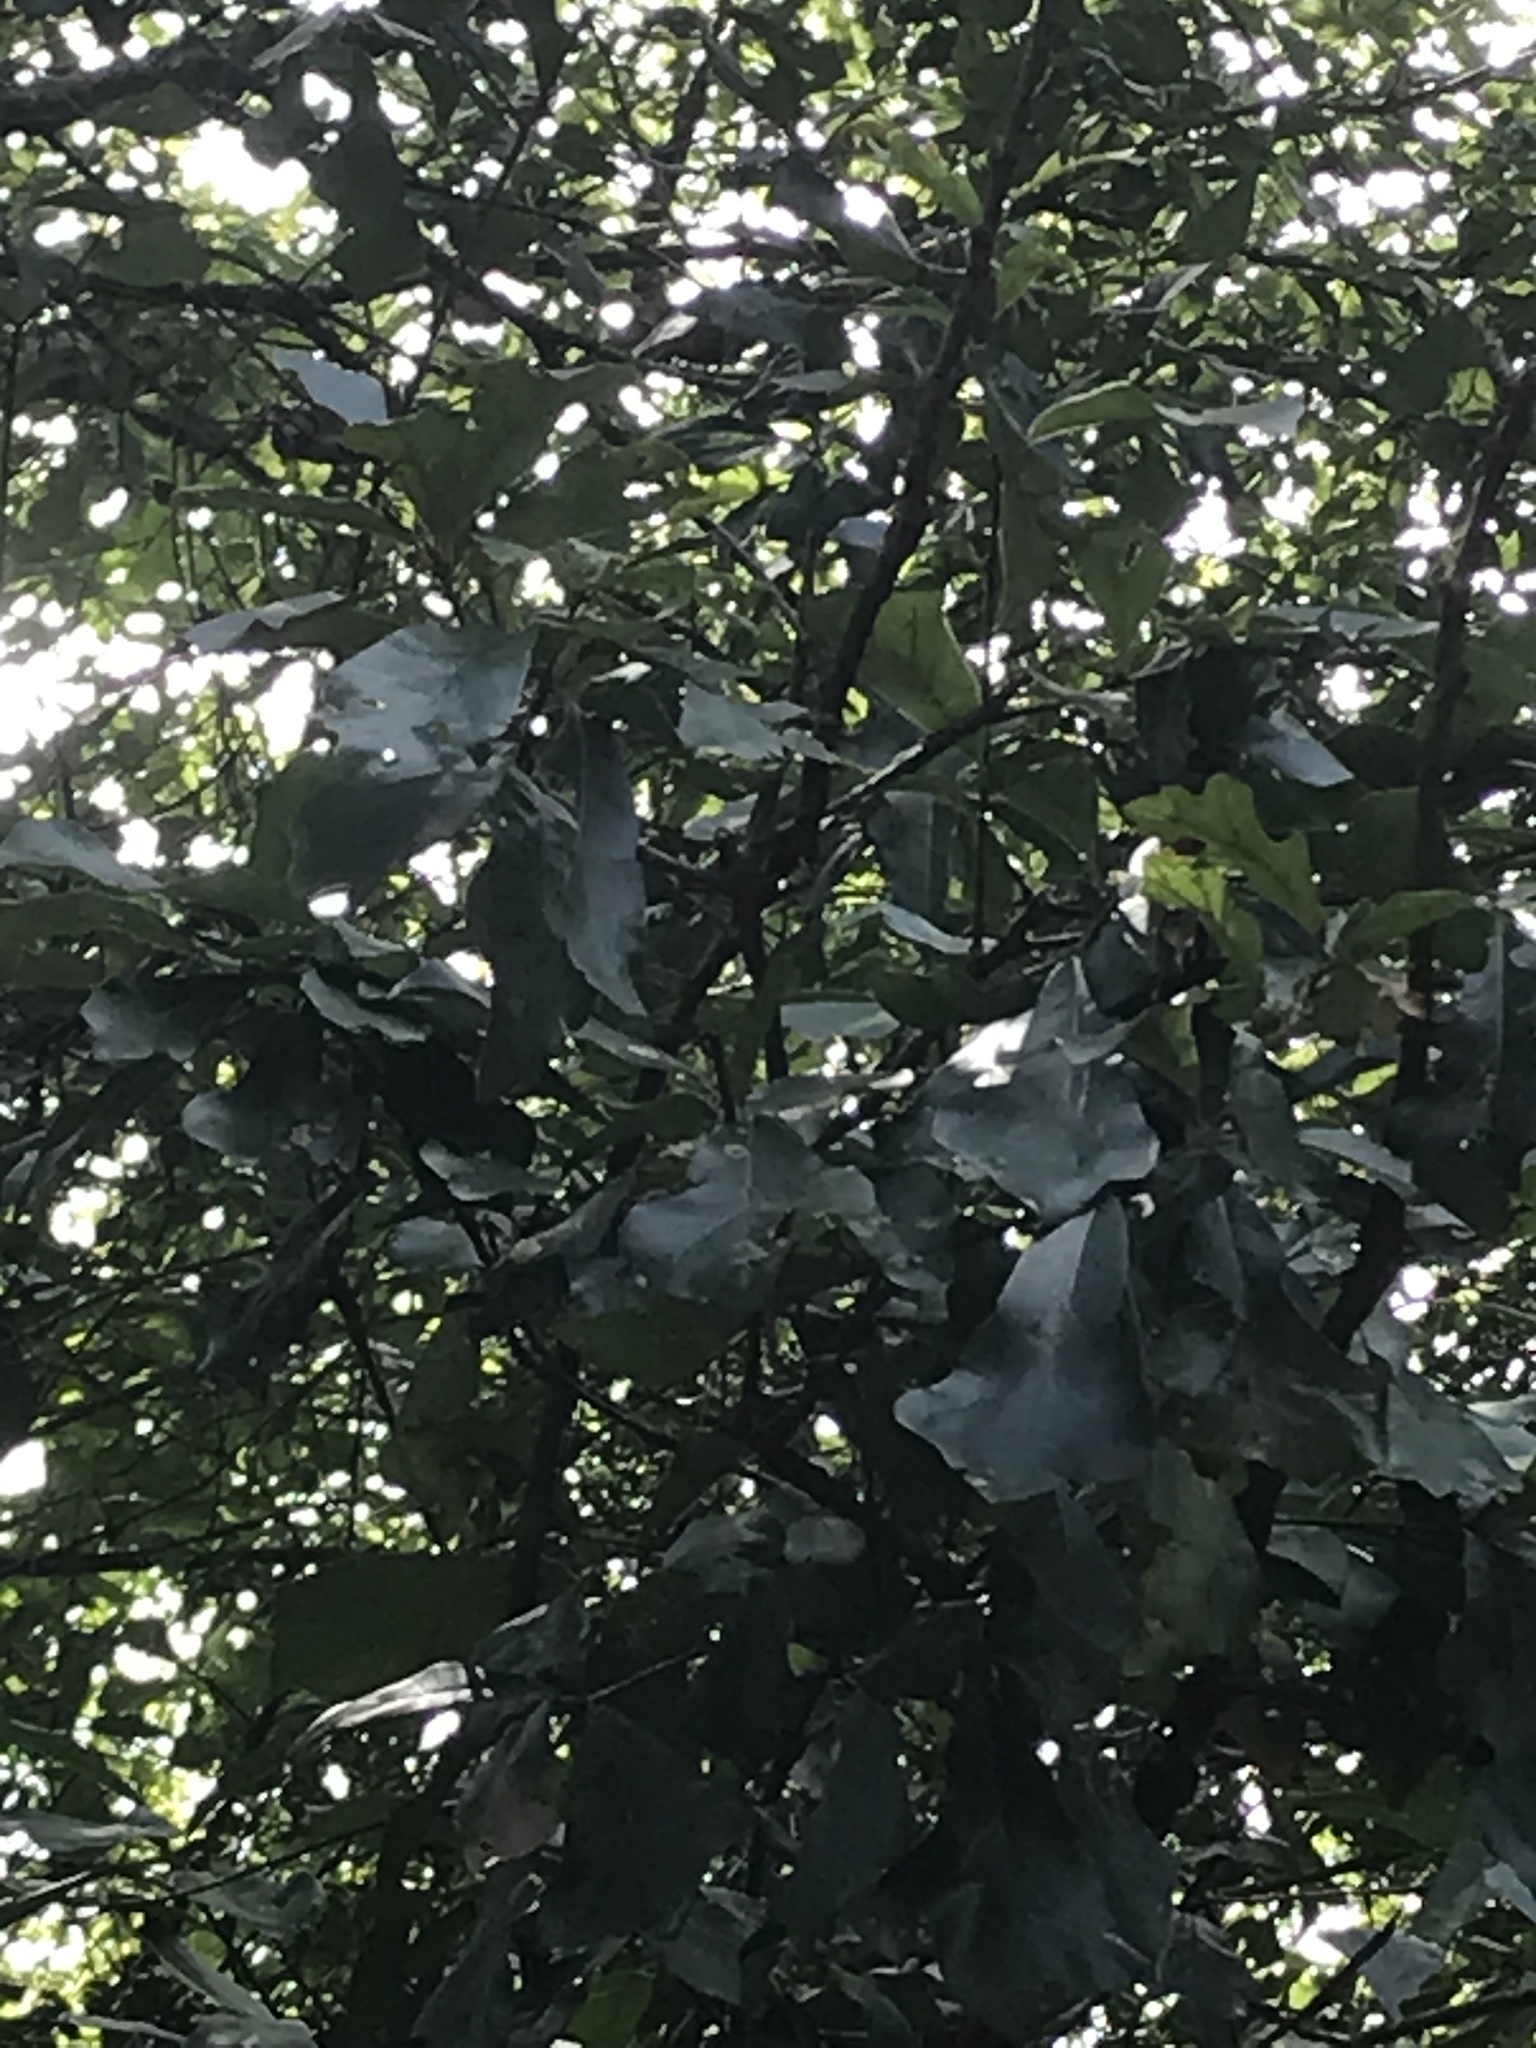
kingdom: Plantae
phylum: Tracheophyta
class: Magnoliopsida
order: Fagales
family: Fagaceae
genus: Quercus
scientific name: Quercus nigra
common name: Water oak
